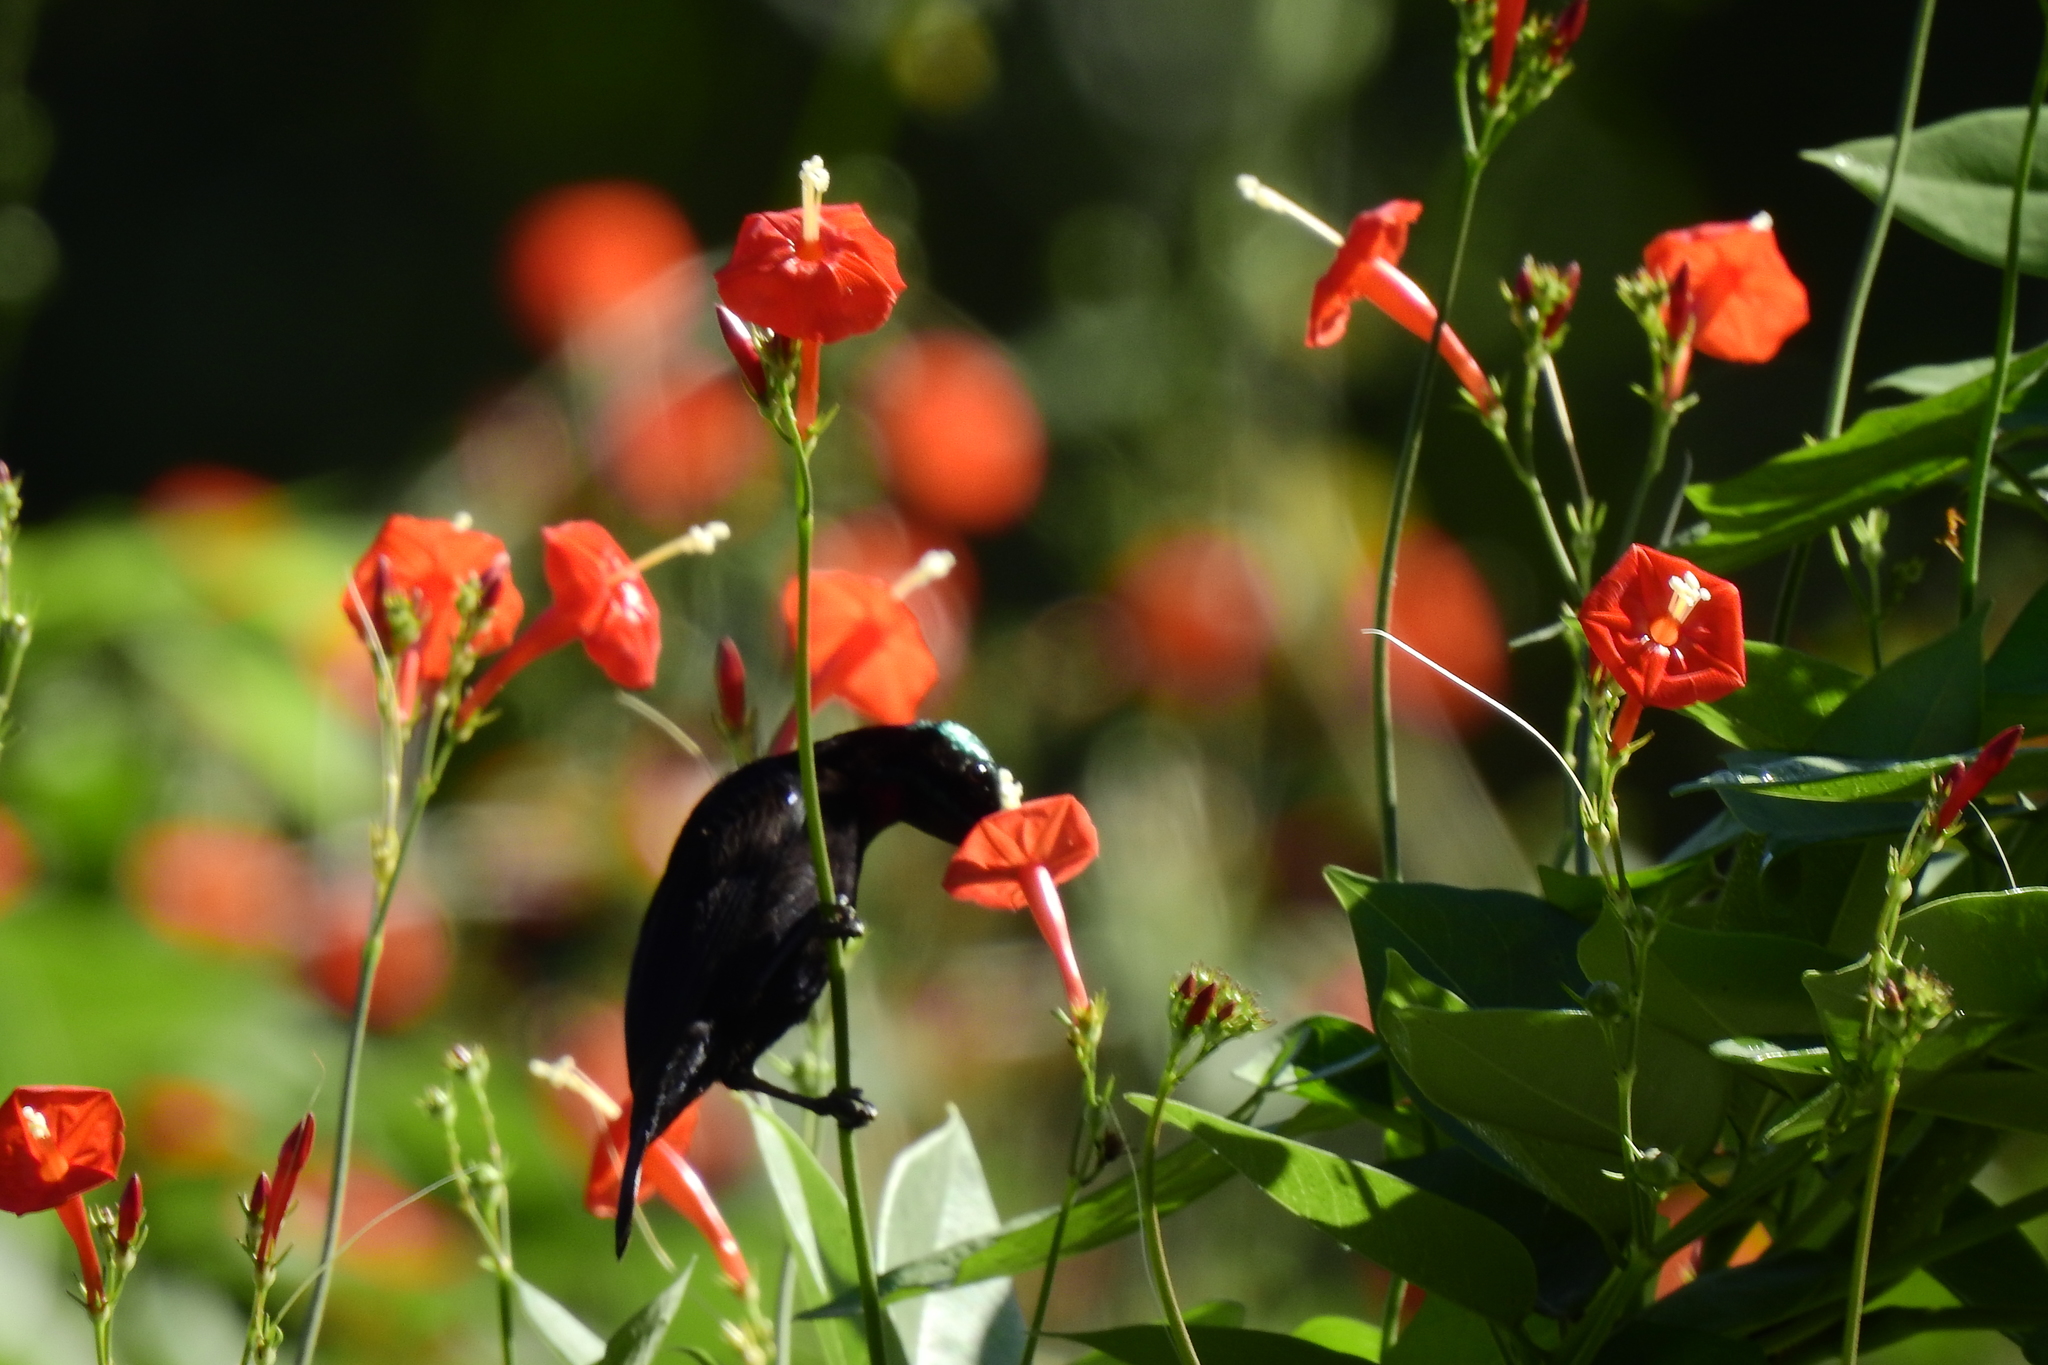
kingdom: Animalia
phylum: Chordata
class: Aves
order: Passeriformes
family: Nectariniidae
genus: Leptocoma
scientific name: Leptocoma sericea
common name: Black sunbird
